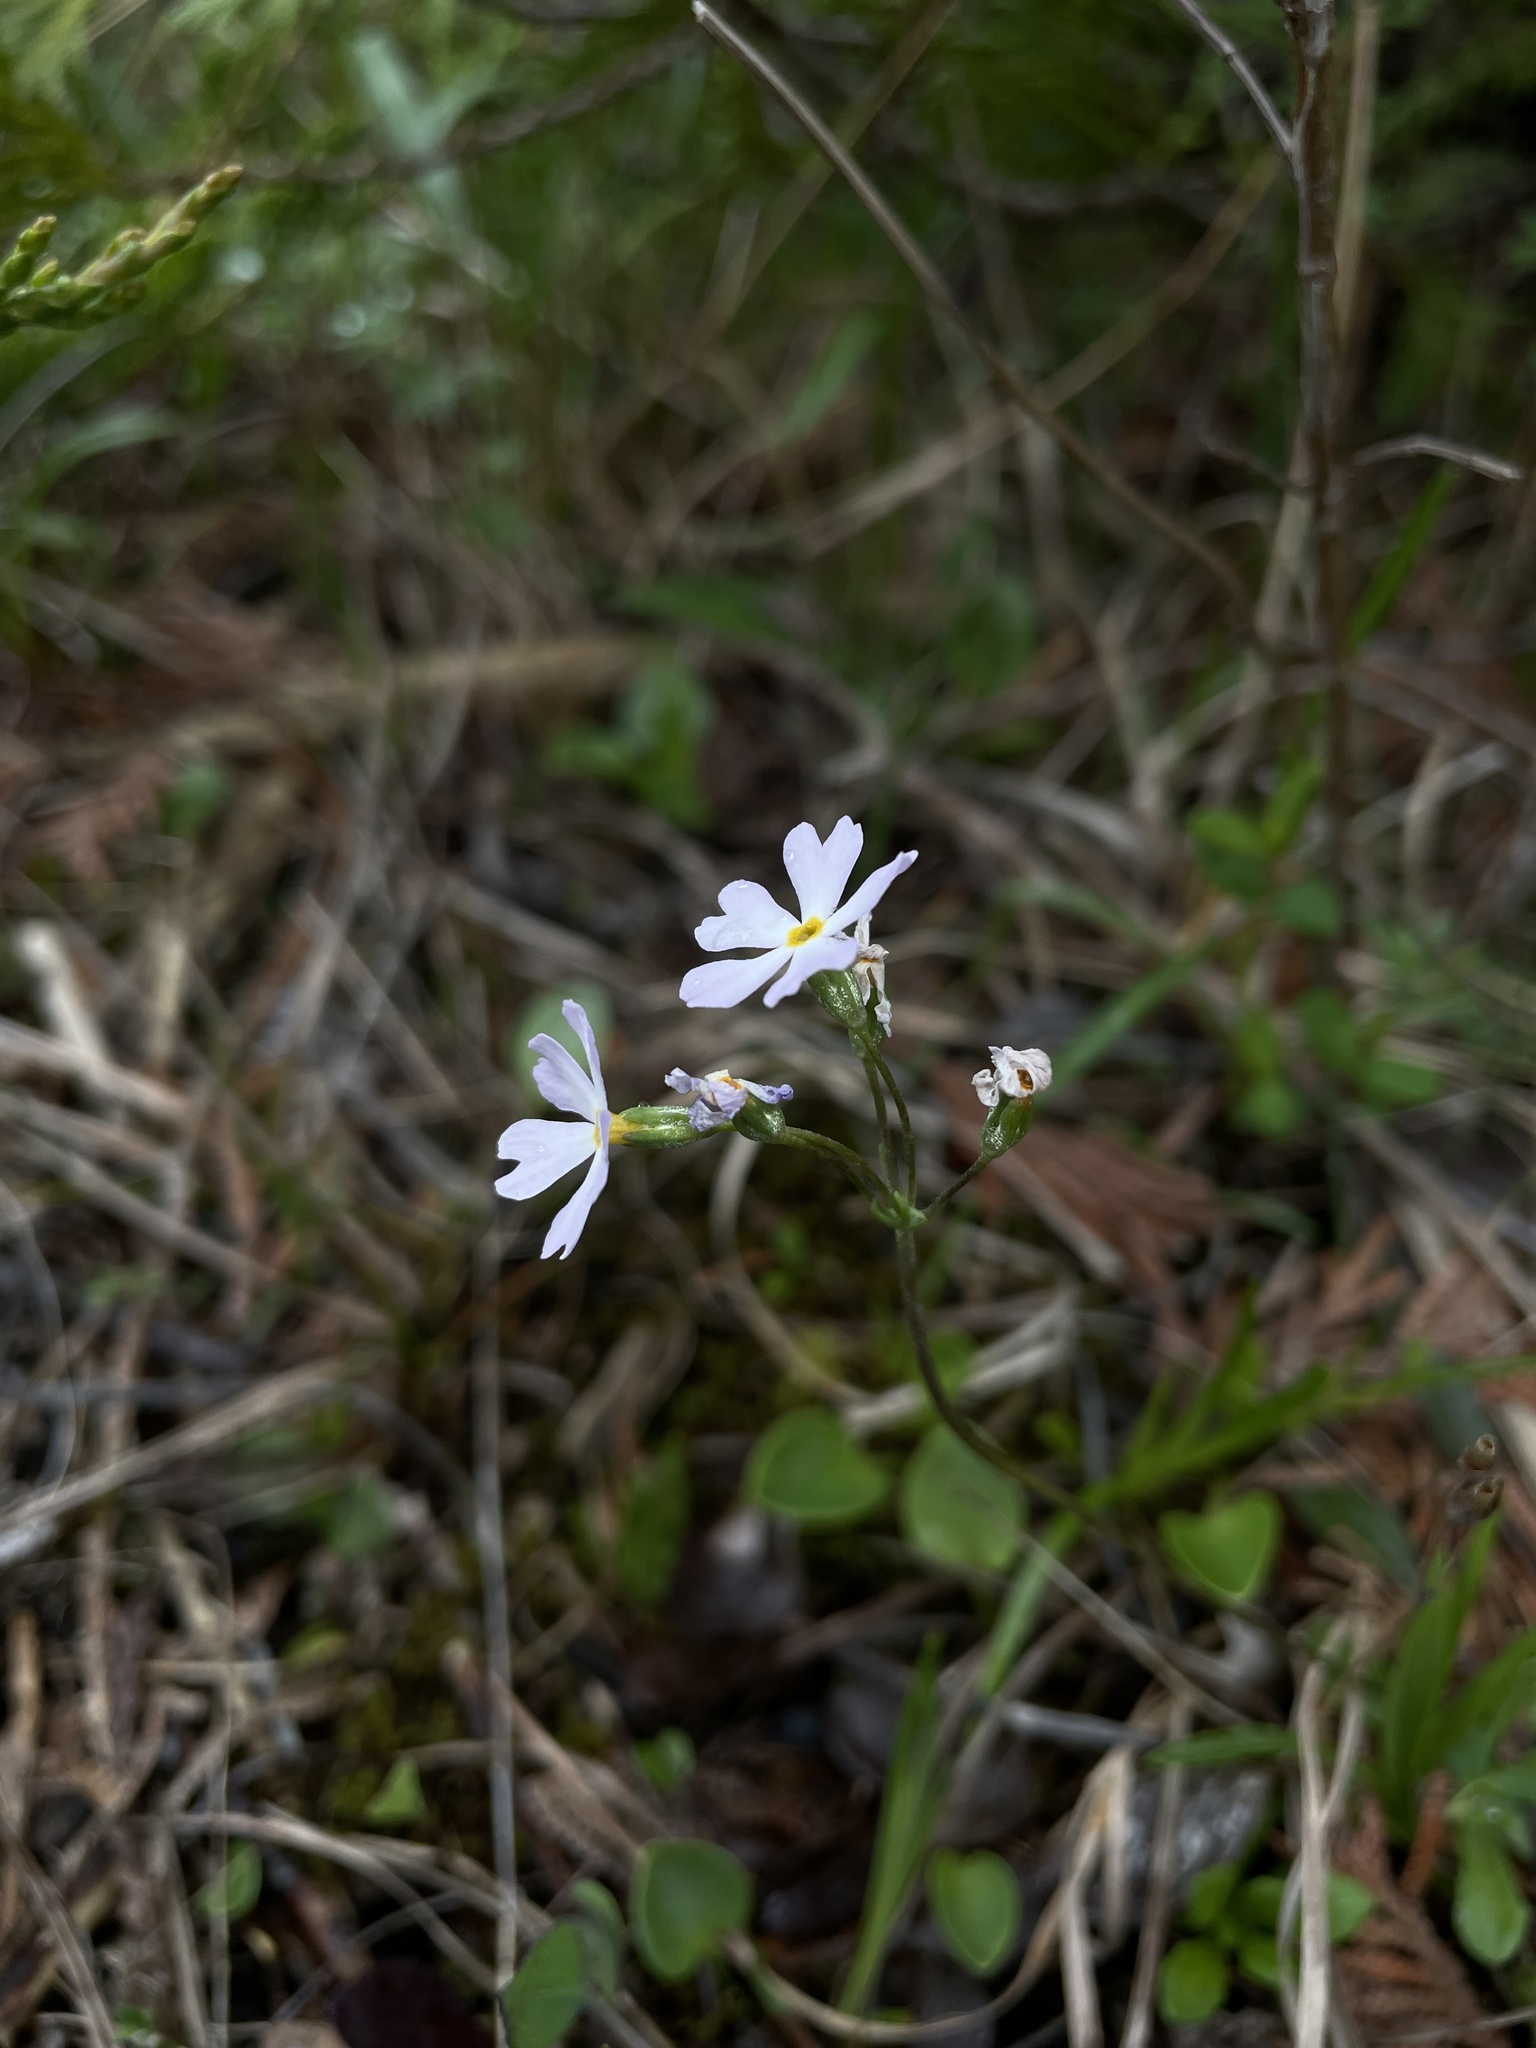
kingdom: Plantae
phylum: Tracheophyta
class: Magnoliopsida
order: Ericales
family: Primulaceae
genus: Primula
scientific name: Primula mistassinica
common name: Bird's-eye primrose
